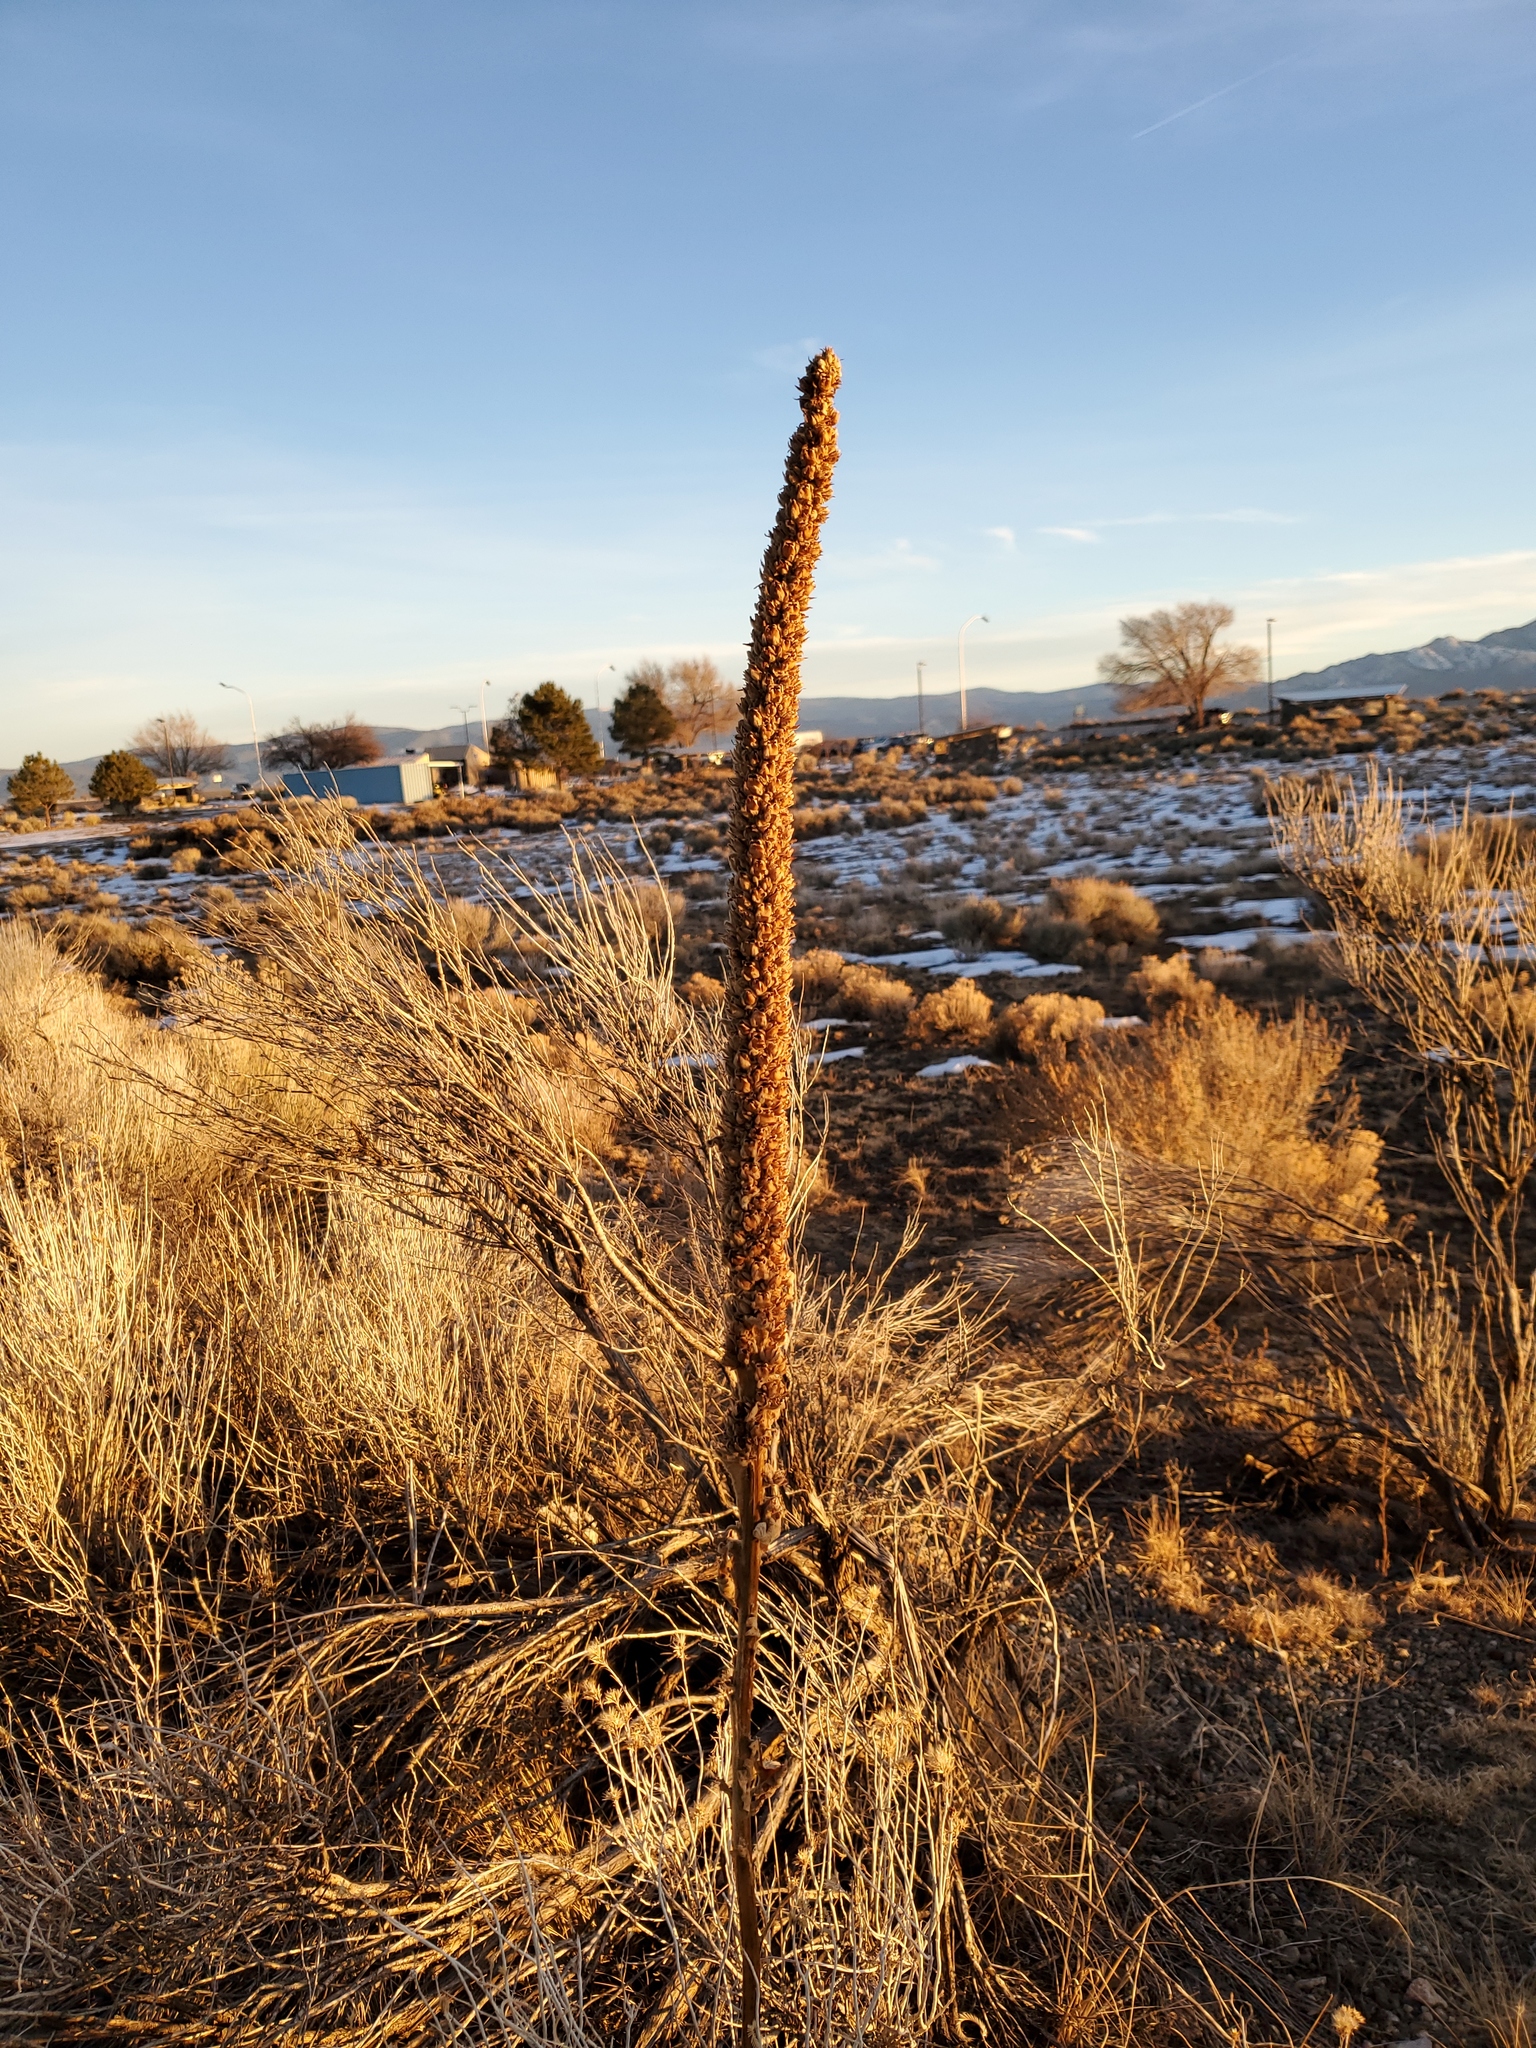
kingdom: Plantae
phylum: Tracheophyta
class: Magnoliopsida
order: Lamiales
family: Scrophulariaceae
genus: Verbascum
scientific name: Verbascum thapsus
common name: Common mullein
